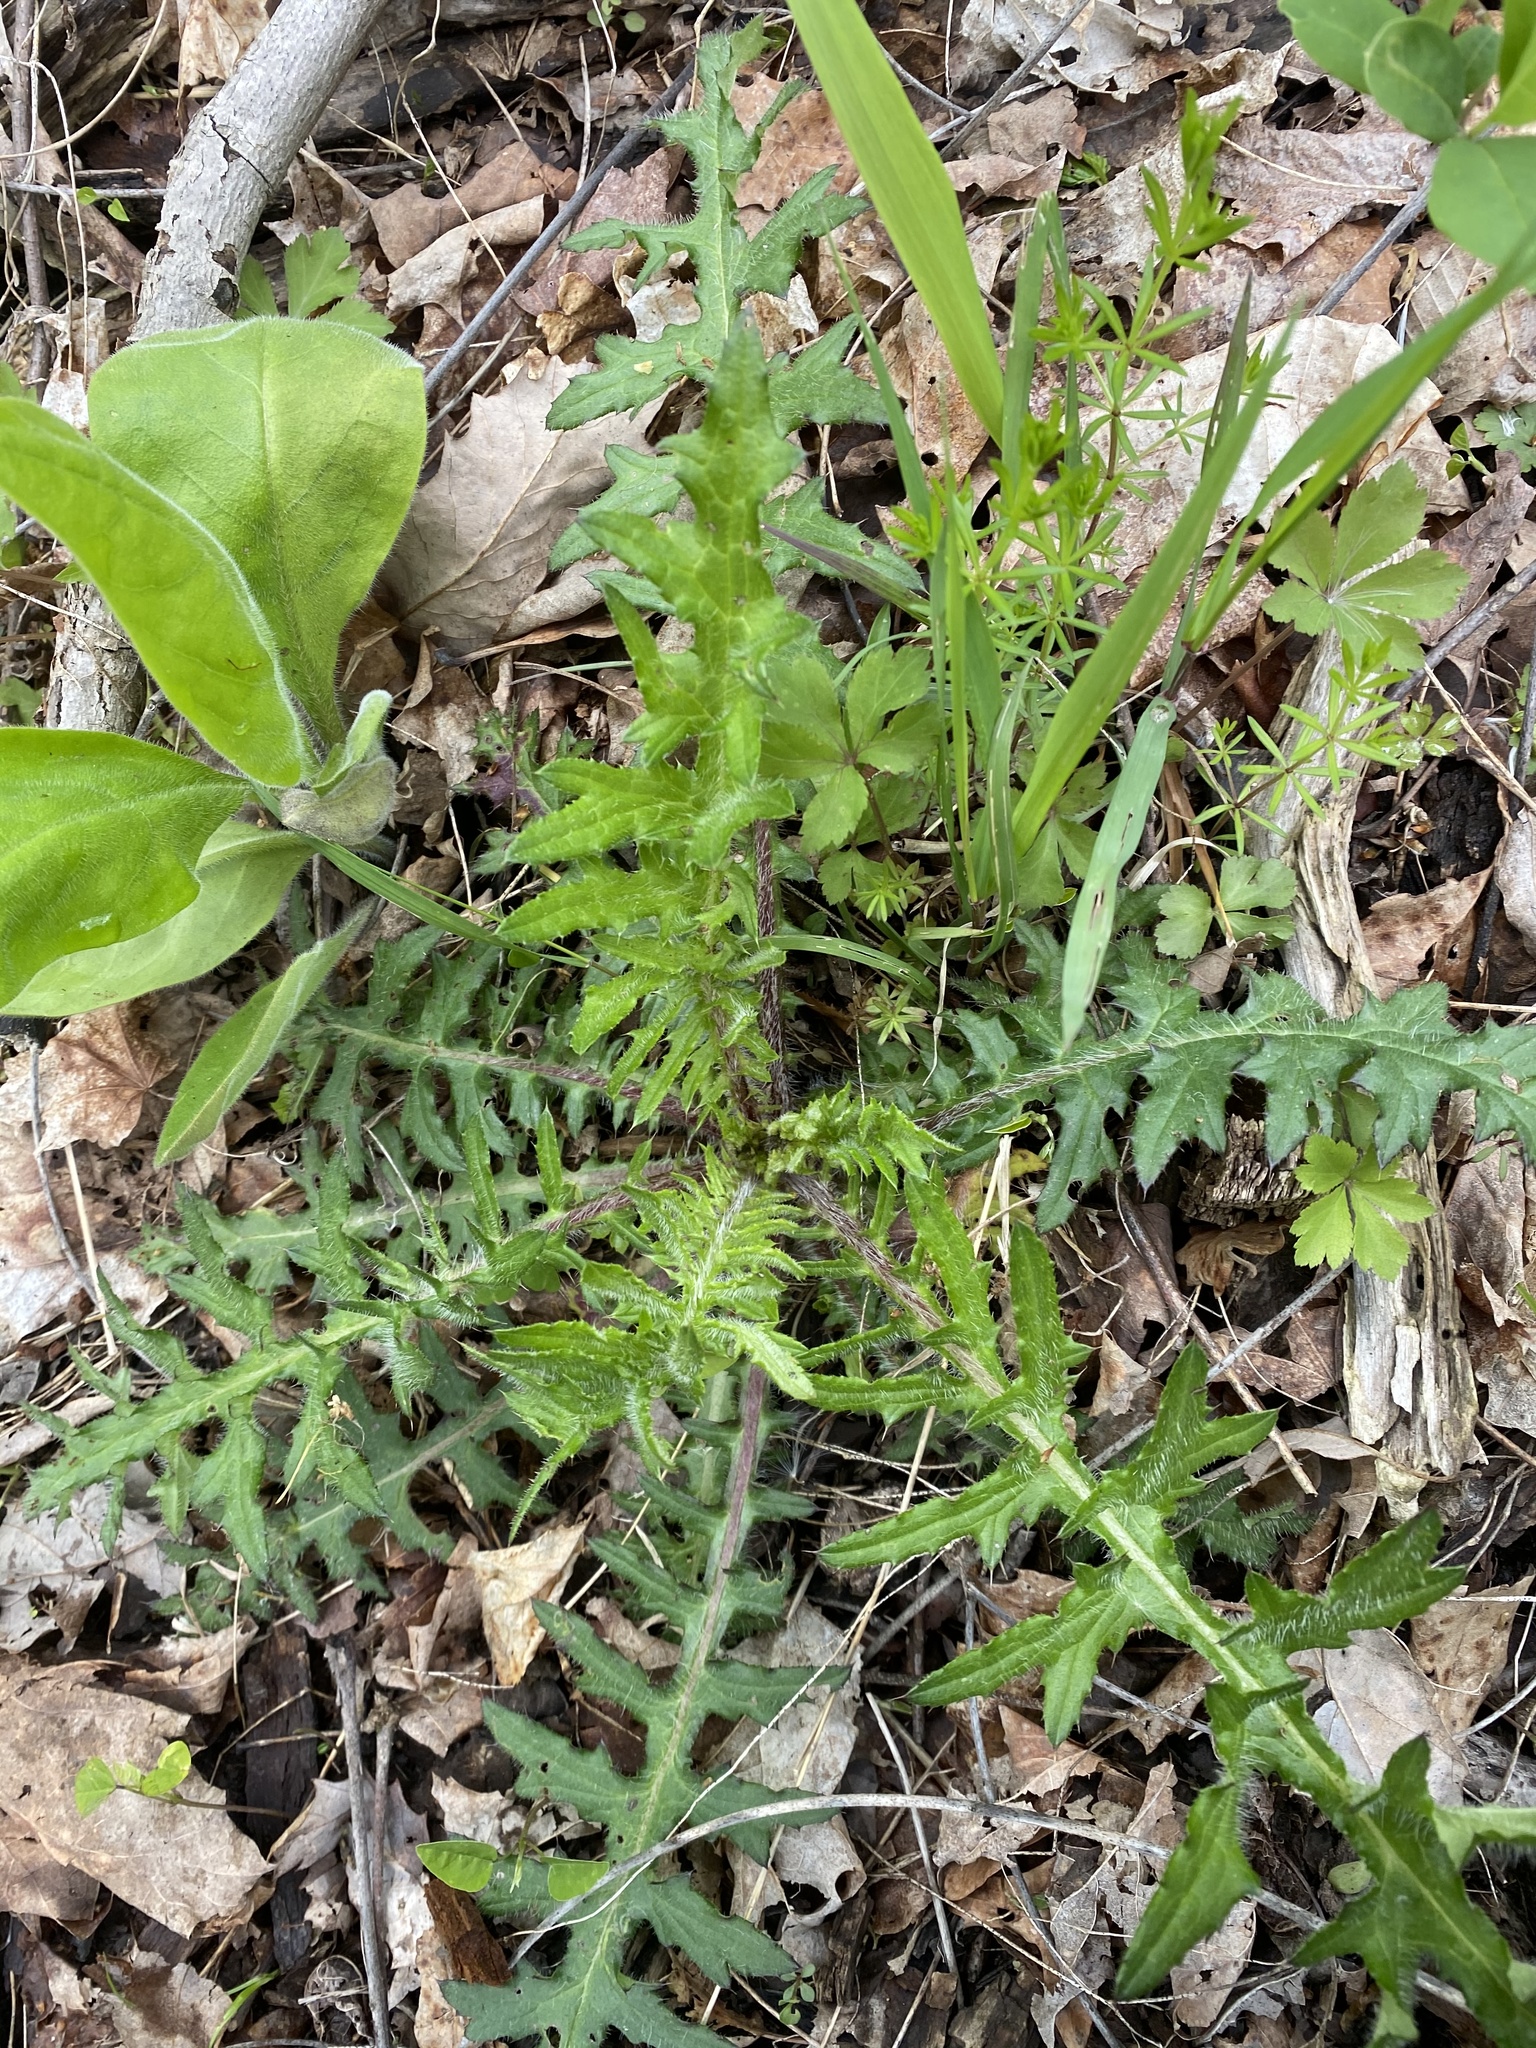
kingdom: Plantae
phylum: Tracheophyta
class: Magnoliopsida
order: Asterales
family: Asteraceae
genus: Cirsium
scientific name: Cirsium muticum
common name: Dunce-nettle
